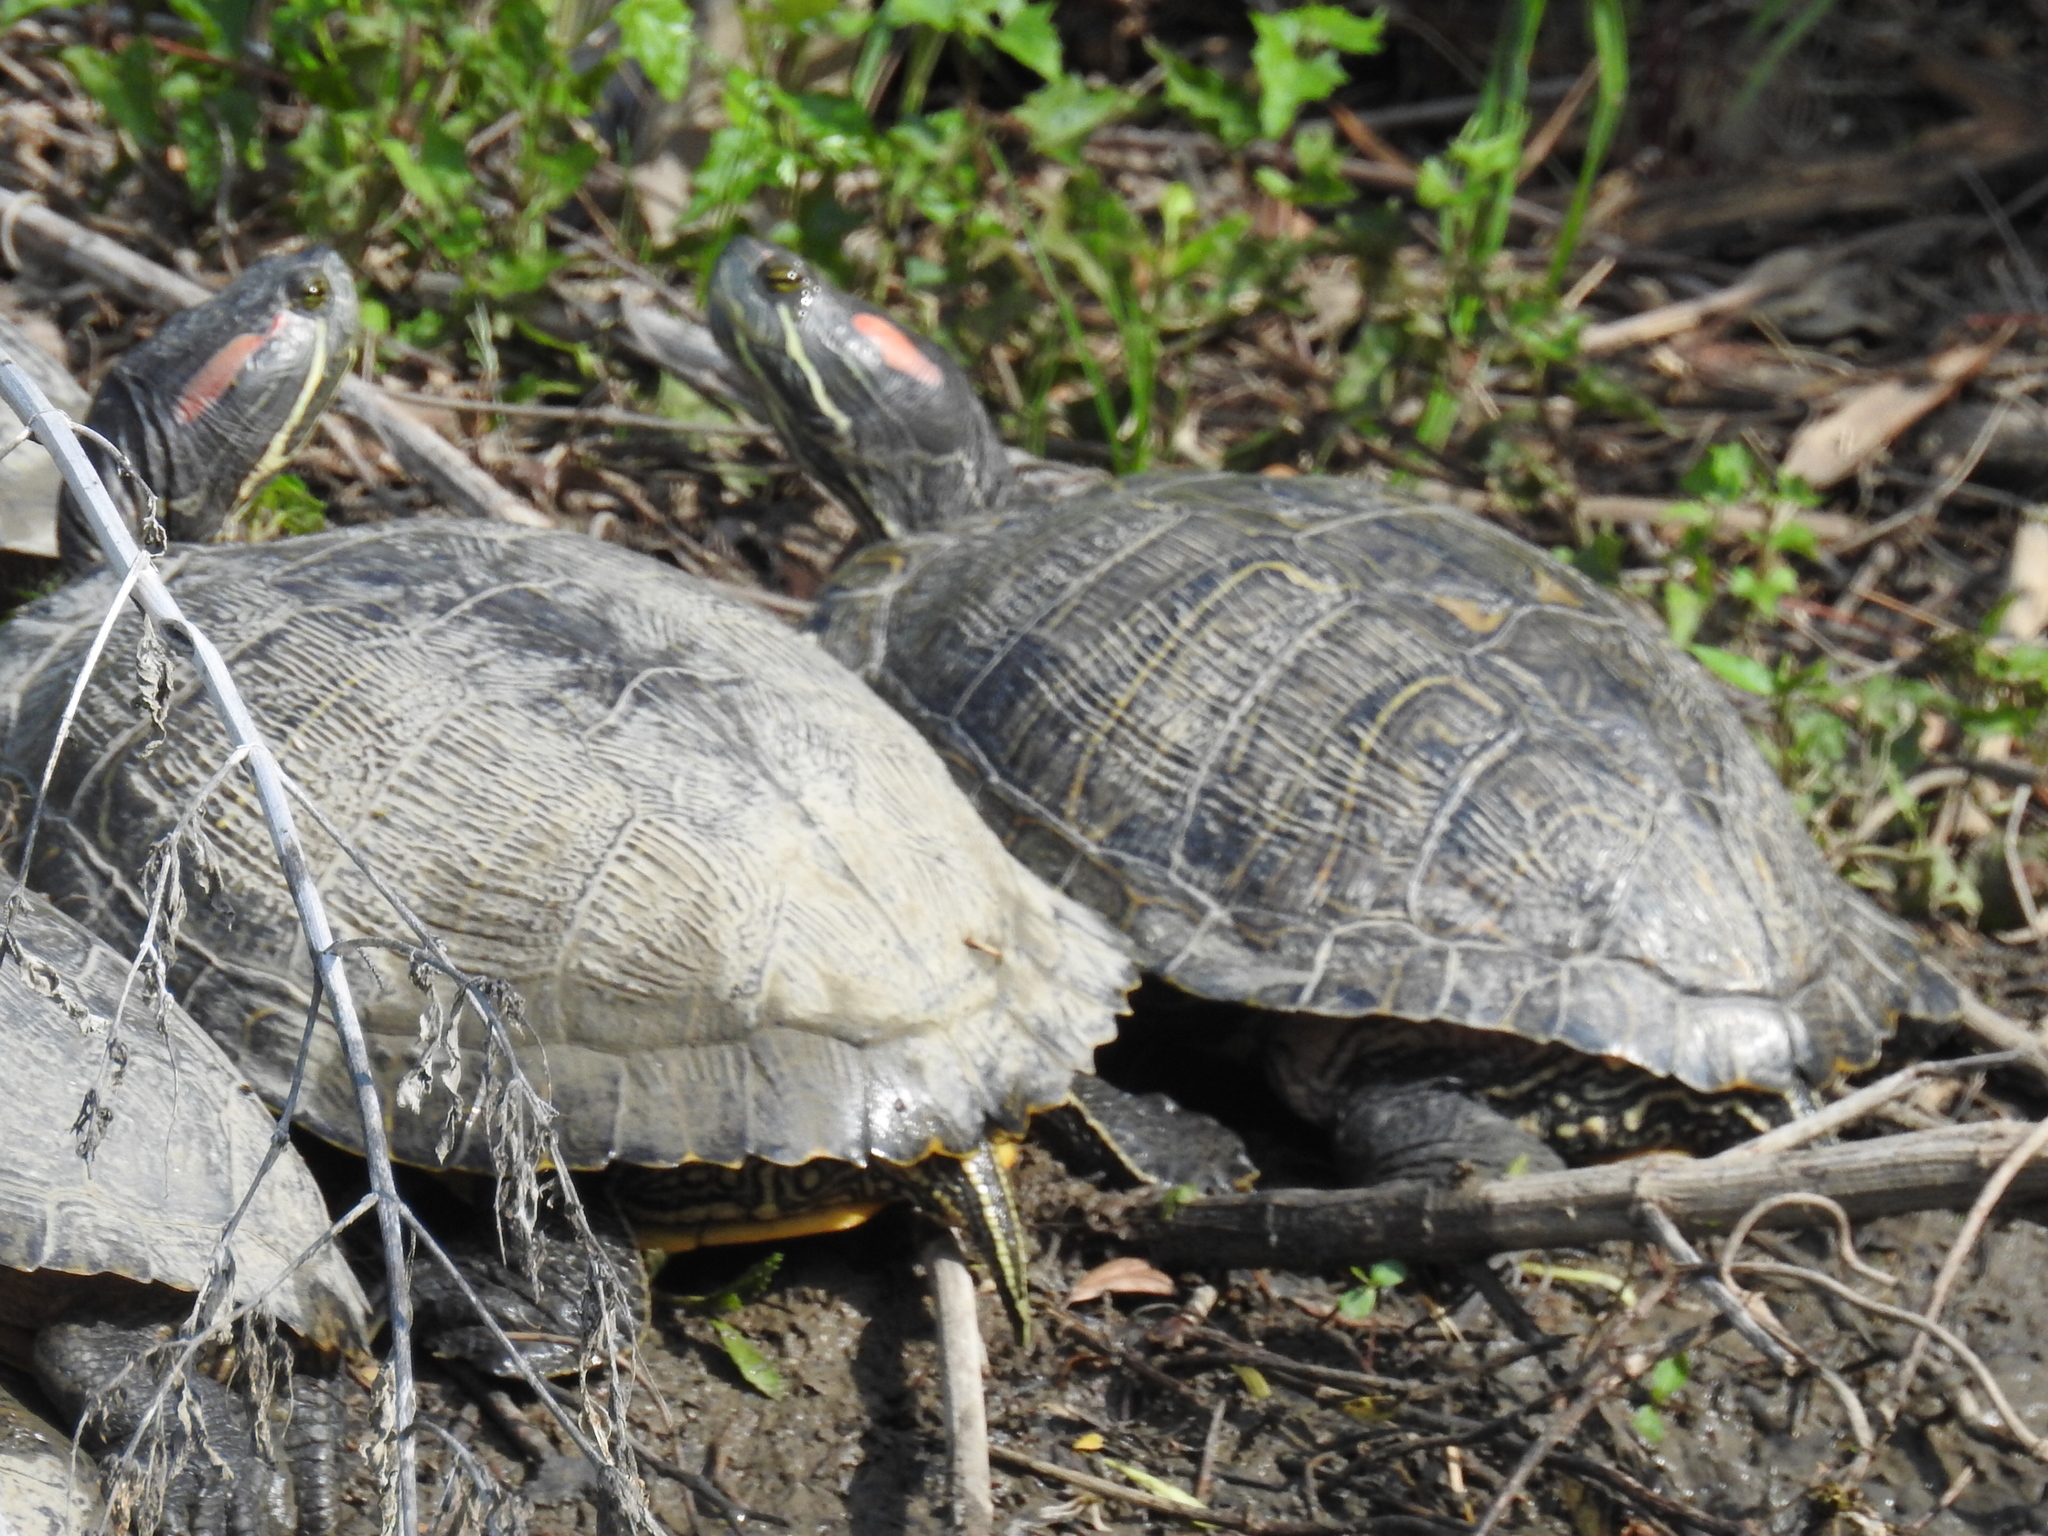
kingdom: Animalia
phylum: Chordata
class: Testudines
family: Emydidae
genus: Trachemys
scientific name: Trachemys scripta
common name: Slider
